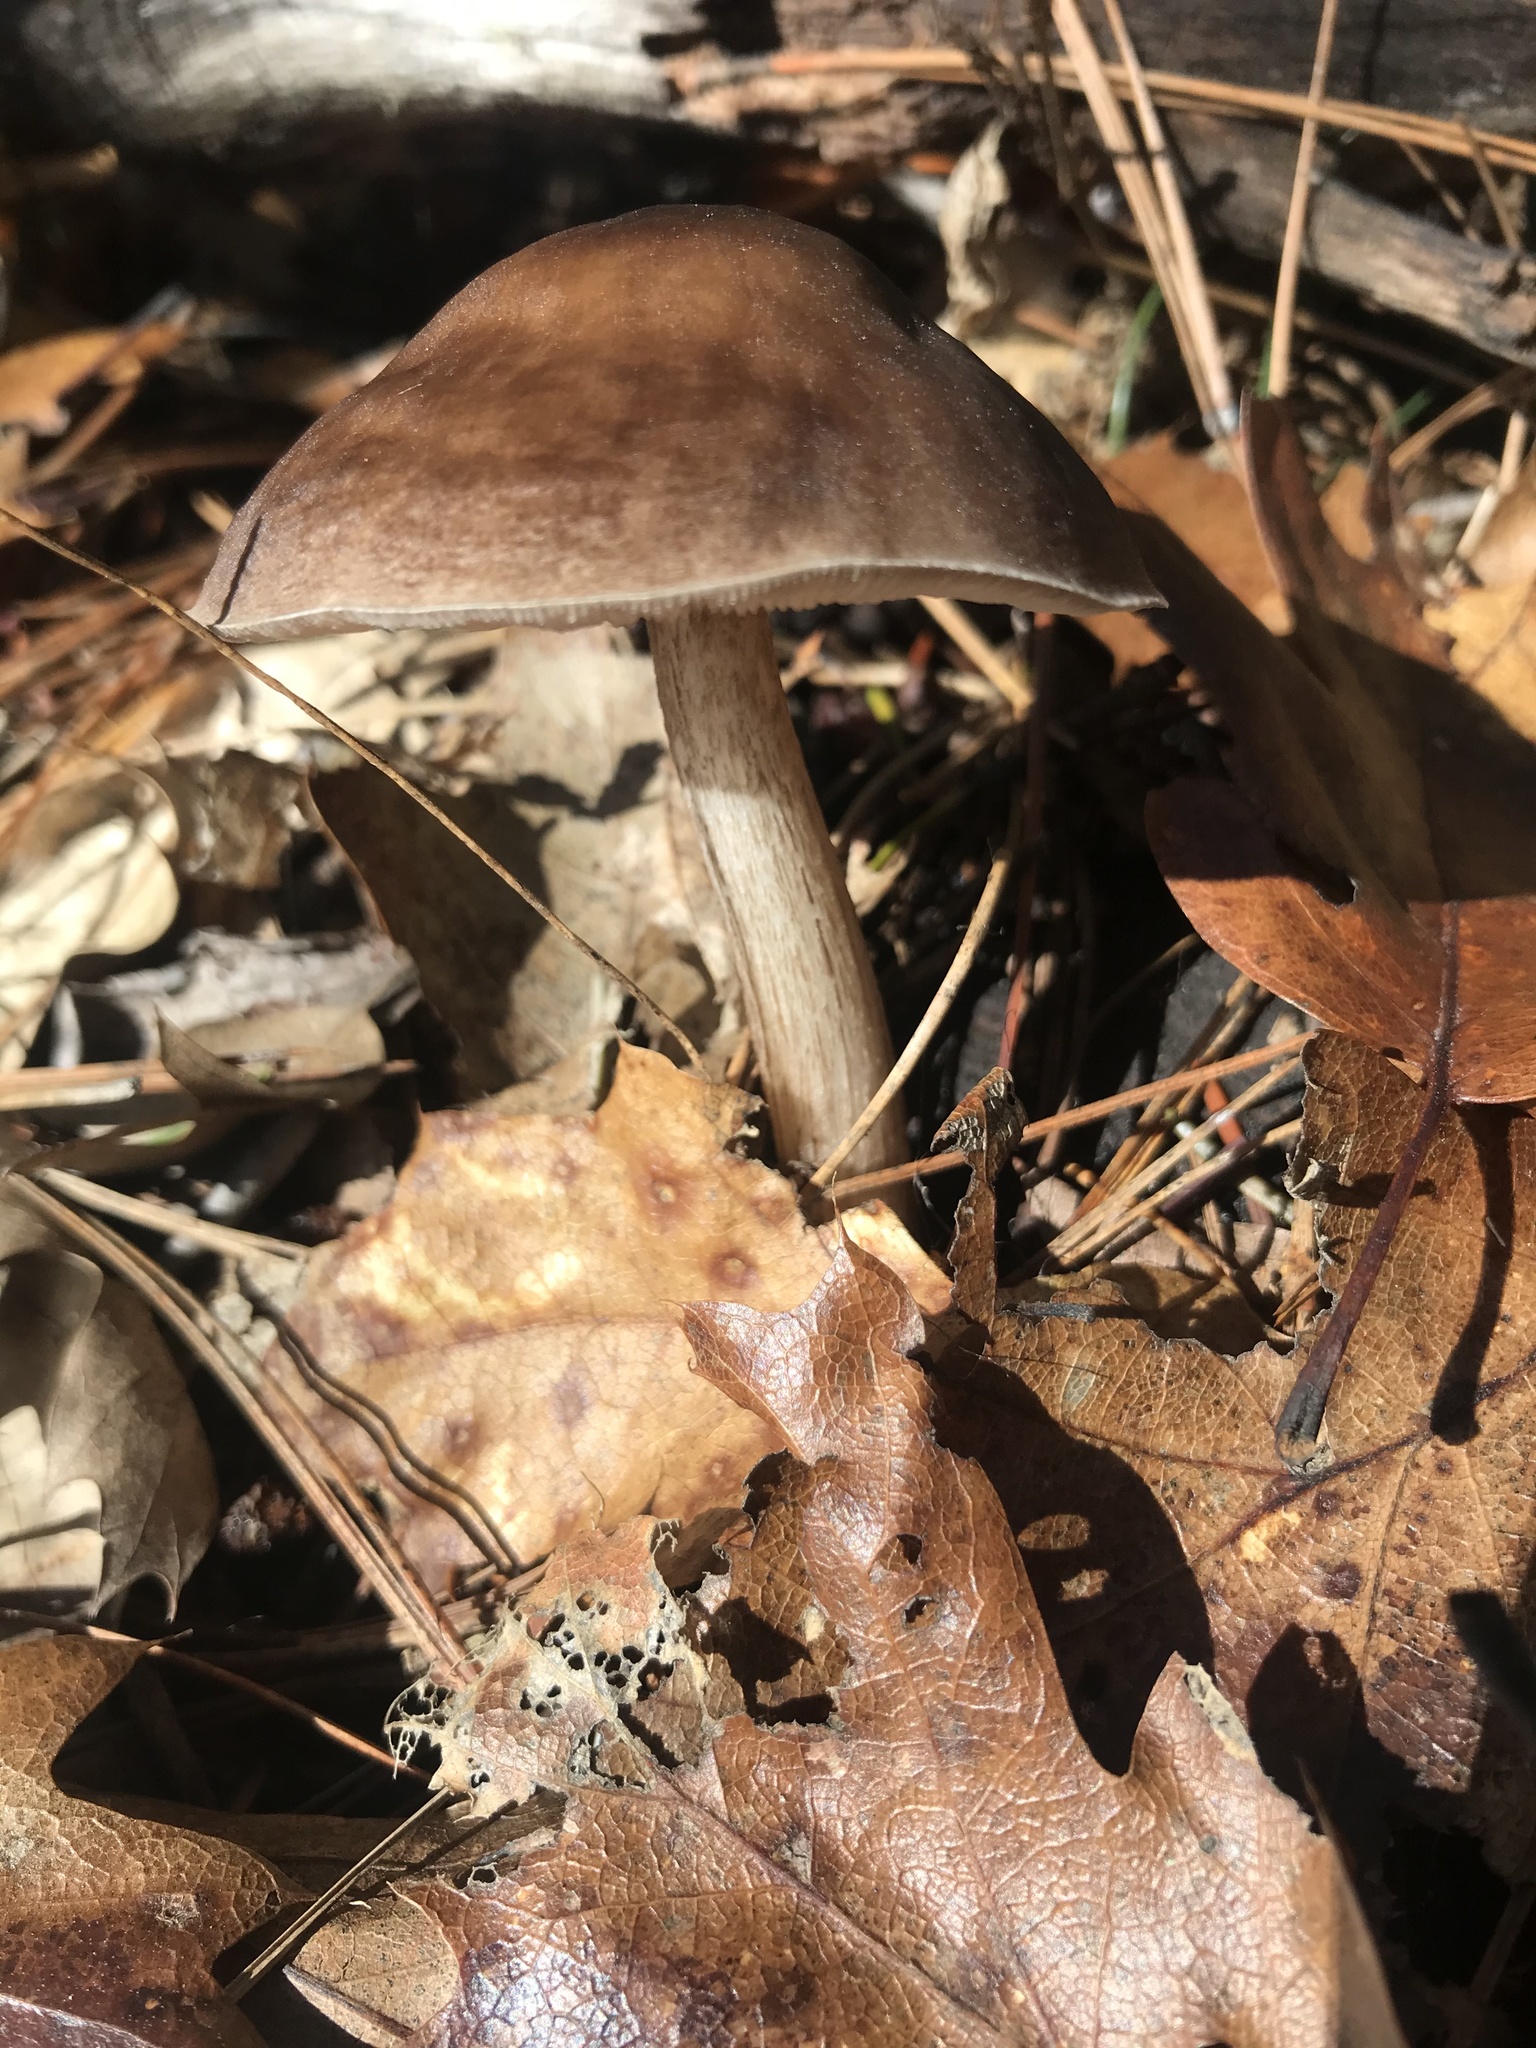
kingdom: Fungi
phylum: Basidiomycota
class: Agaricomycetes
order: Agaricales
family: Pluteaceae
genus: Pluteus
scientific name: Pluteus cervinus
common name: Deer shield
